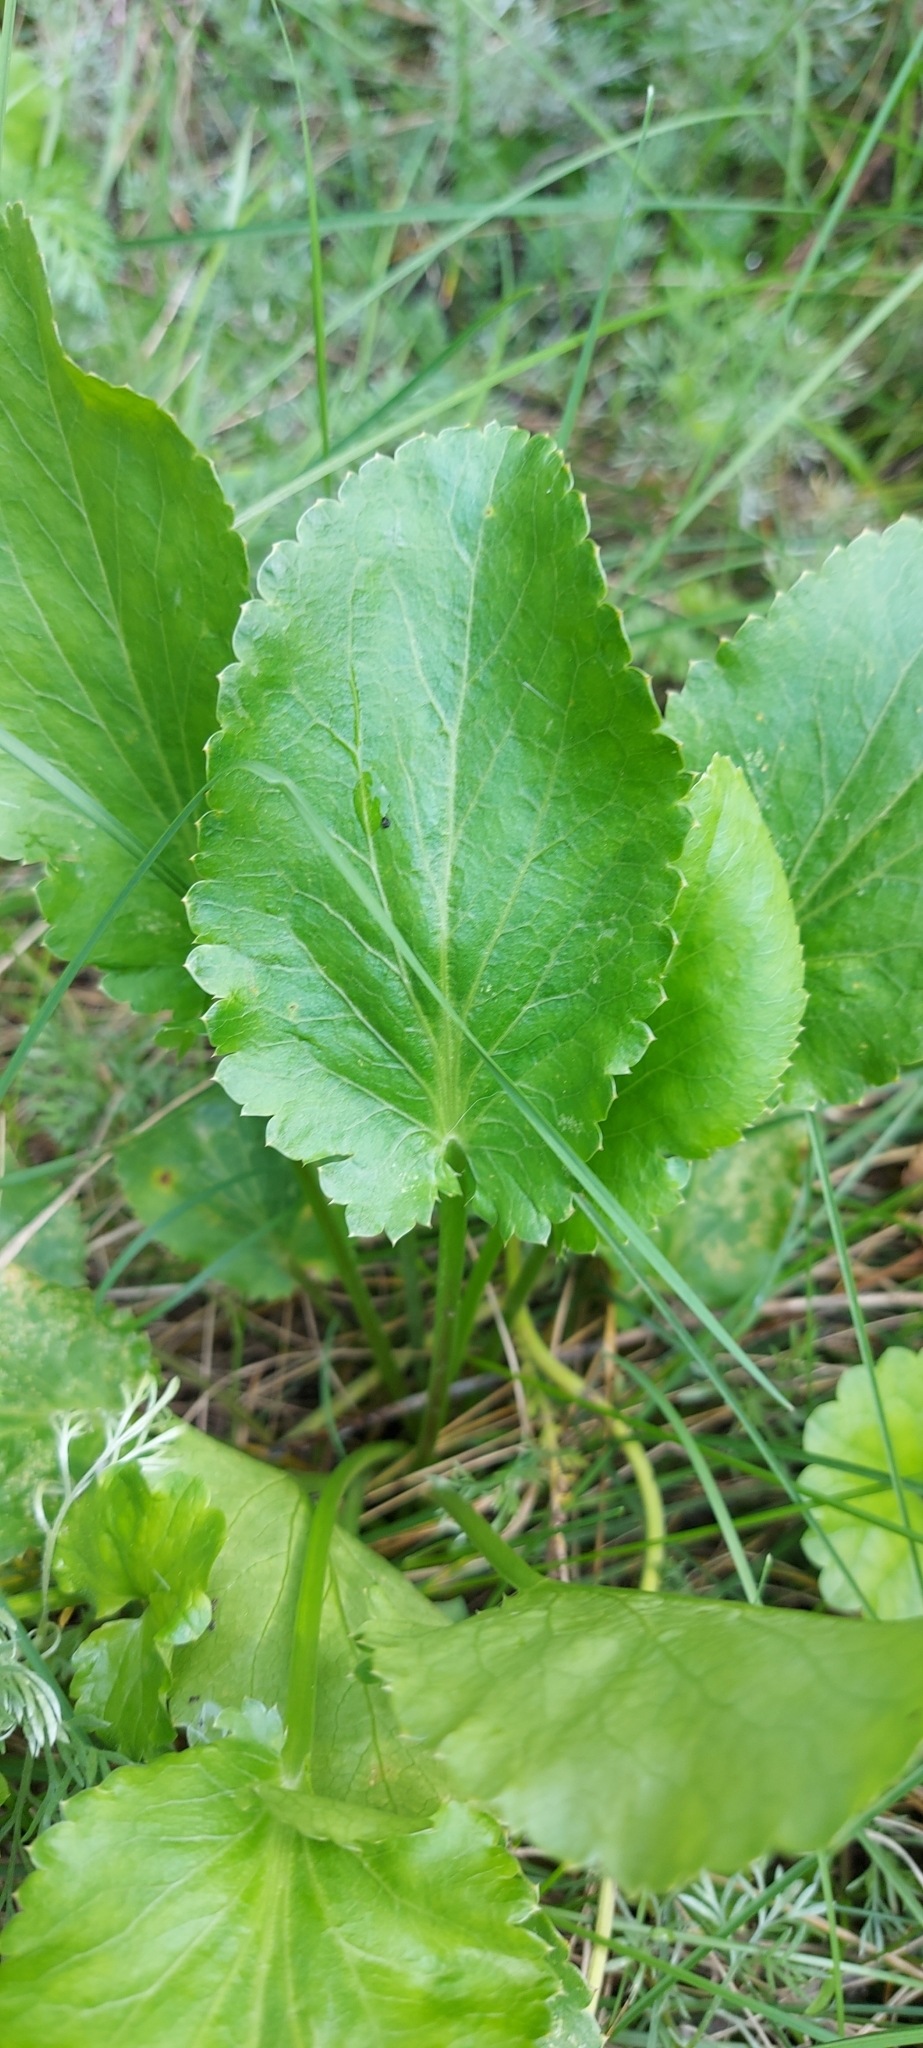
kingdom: Plantae
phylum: Tracheophyta
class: Magnoliopsida
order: Apiales
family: Apiaceae
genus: Eryngium
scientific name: Eryngium planum
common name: Blue eryngo
